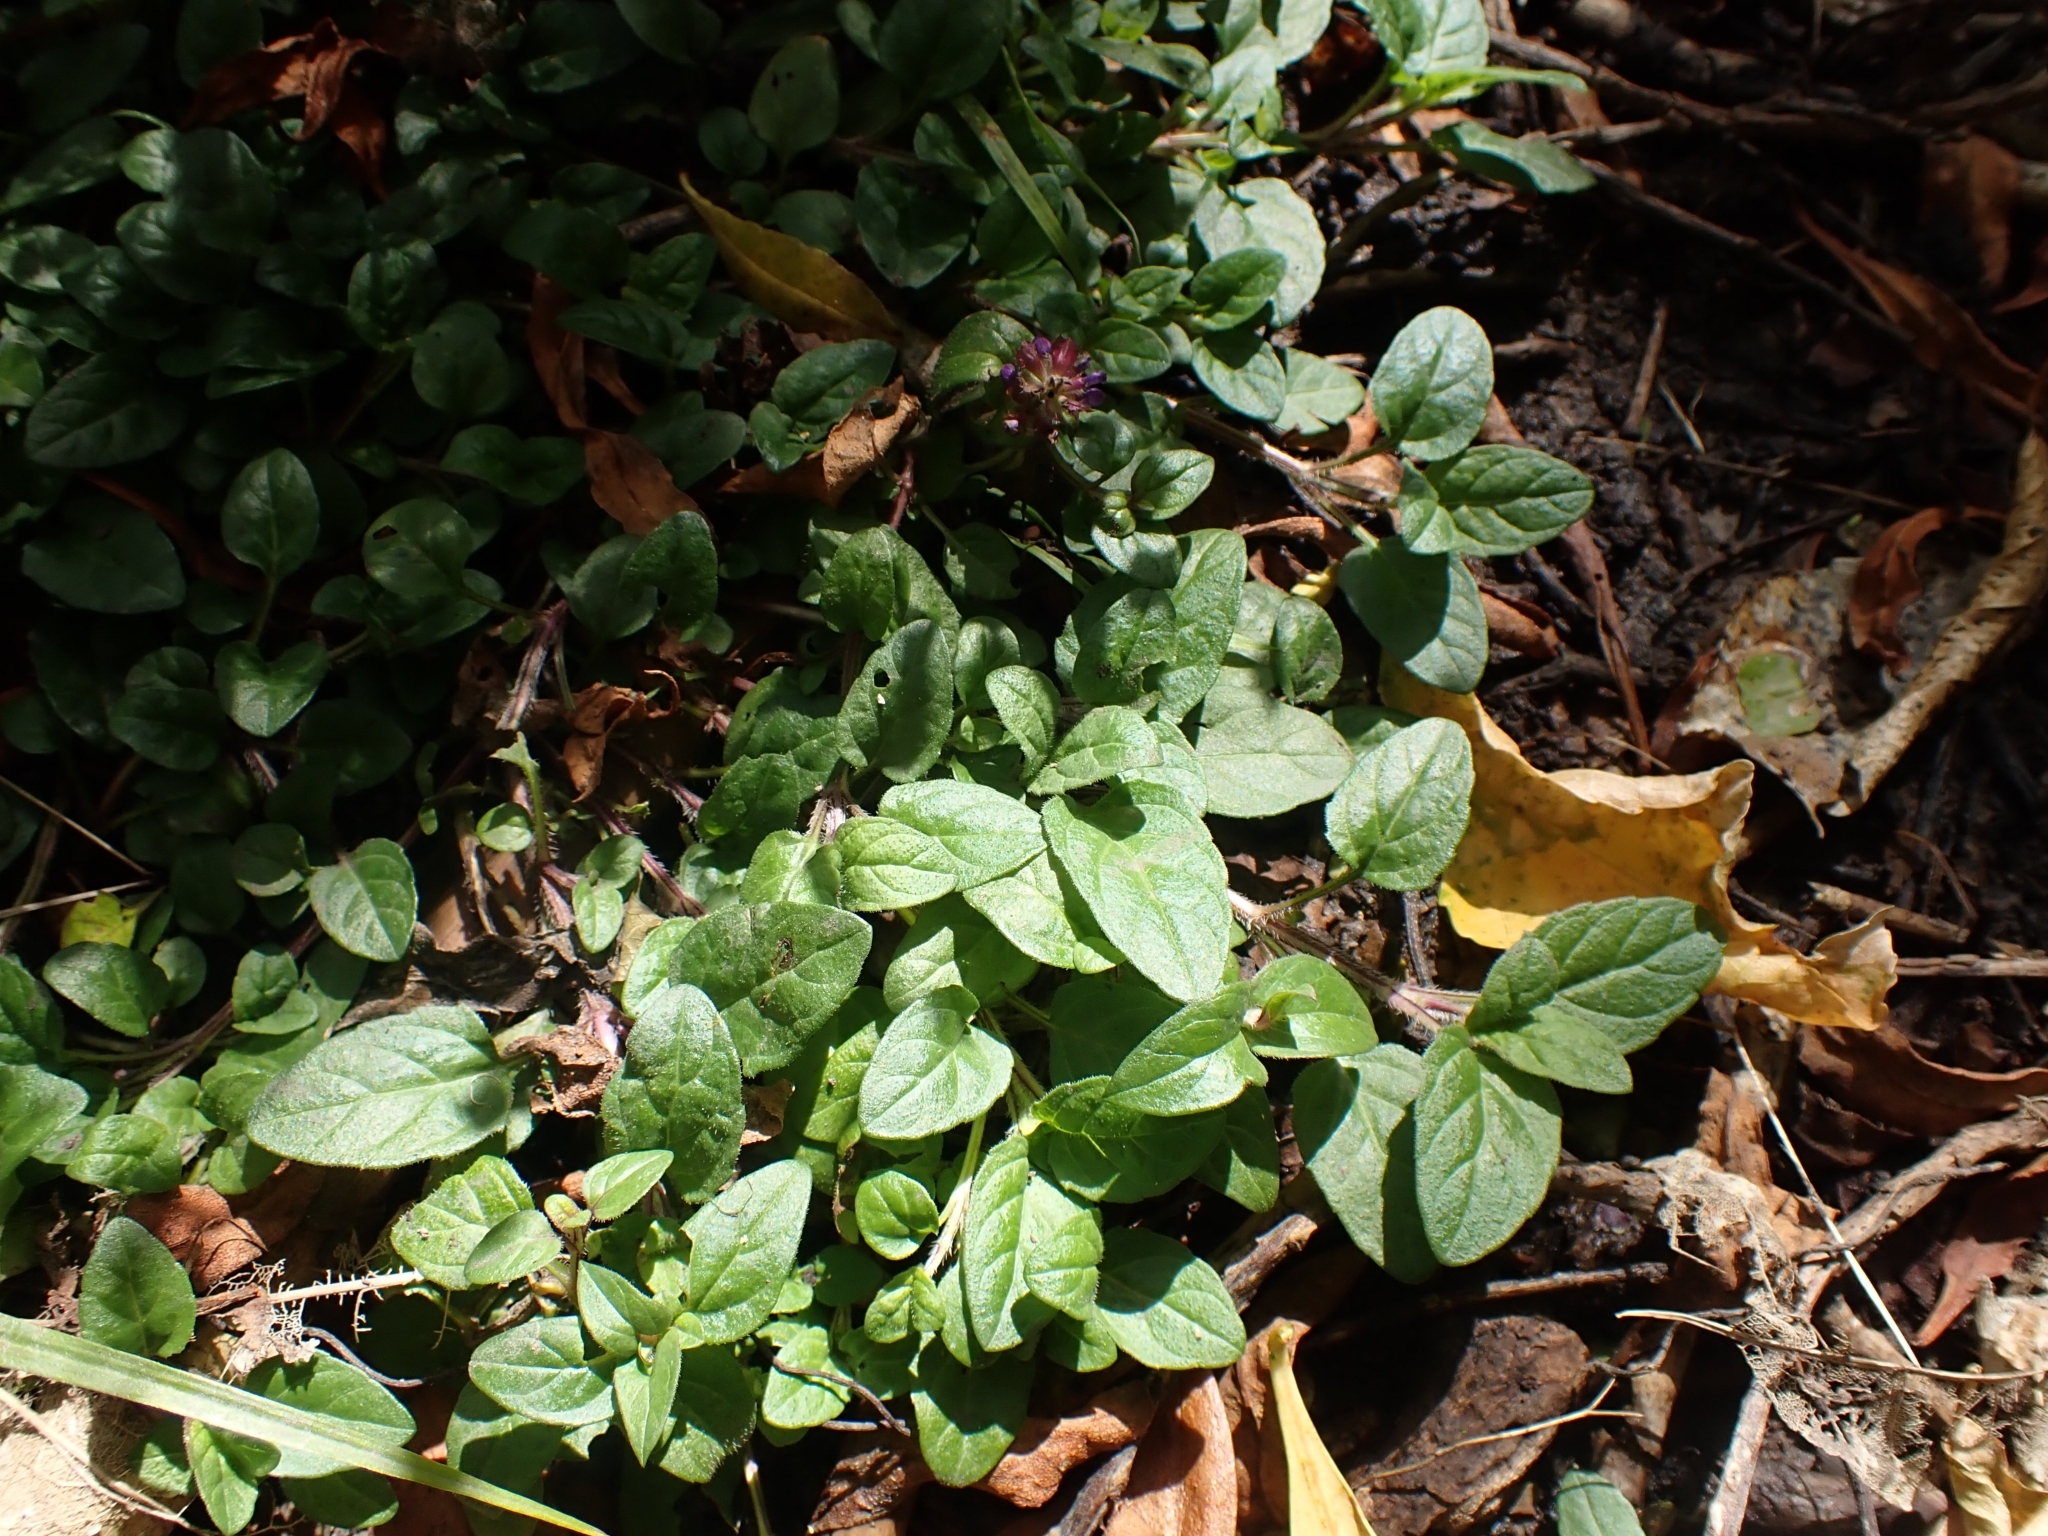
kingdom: Plantae
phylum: Tracheophyta
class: Magnoliopsida
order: Lamiales
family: Lamiaceae
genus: Prunella
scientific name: Prunella vulgaris
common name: Heal-all
